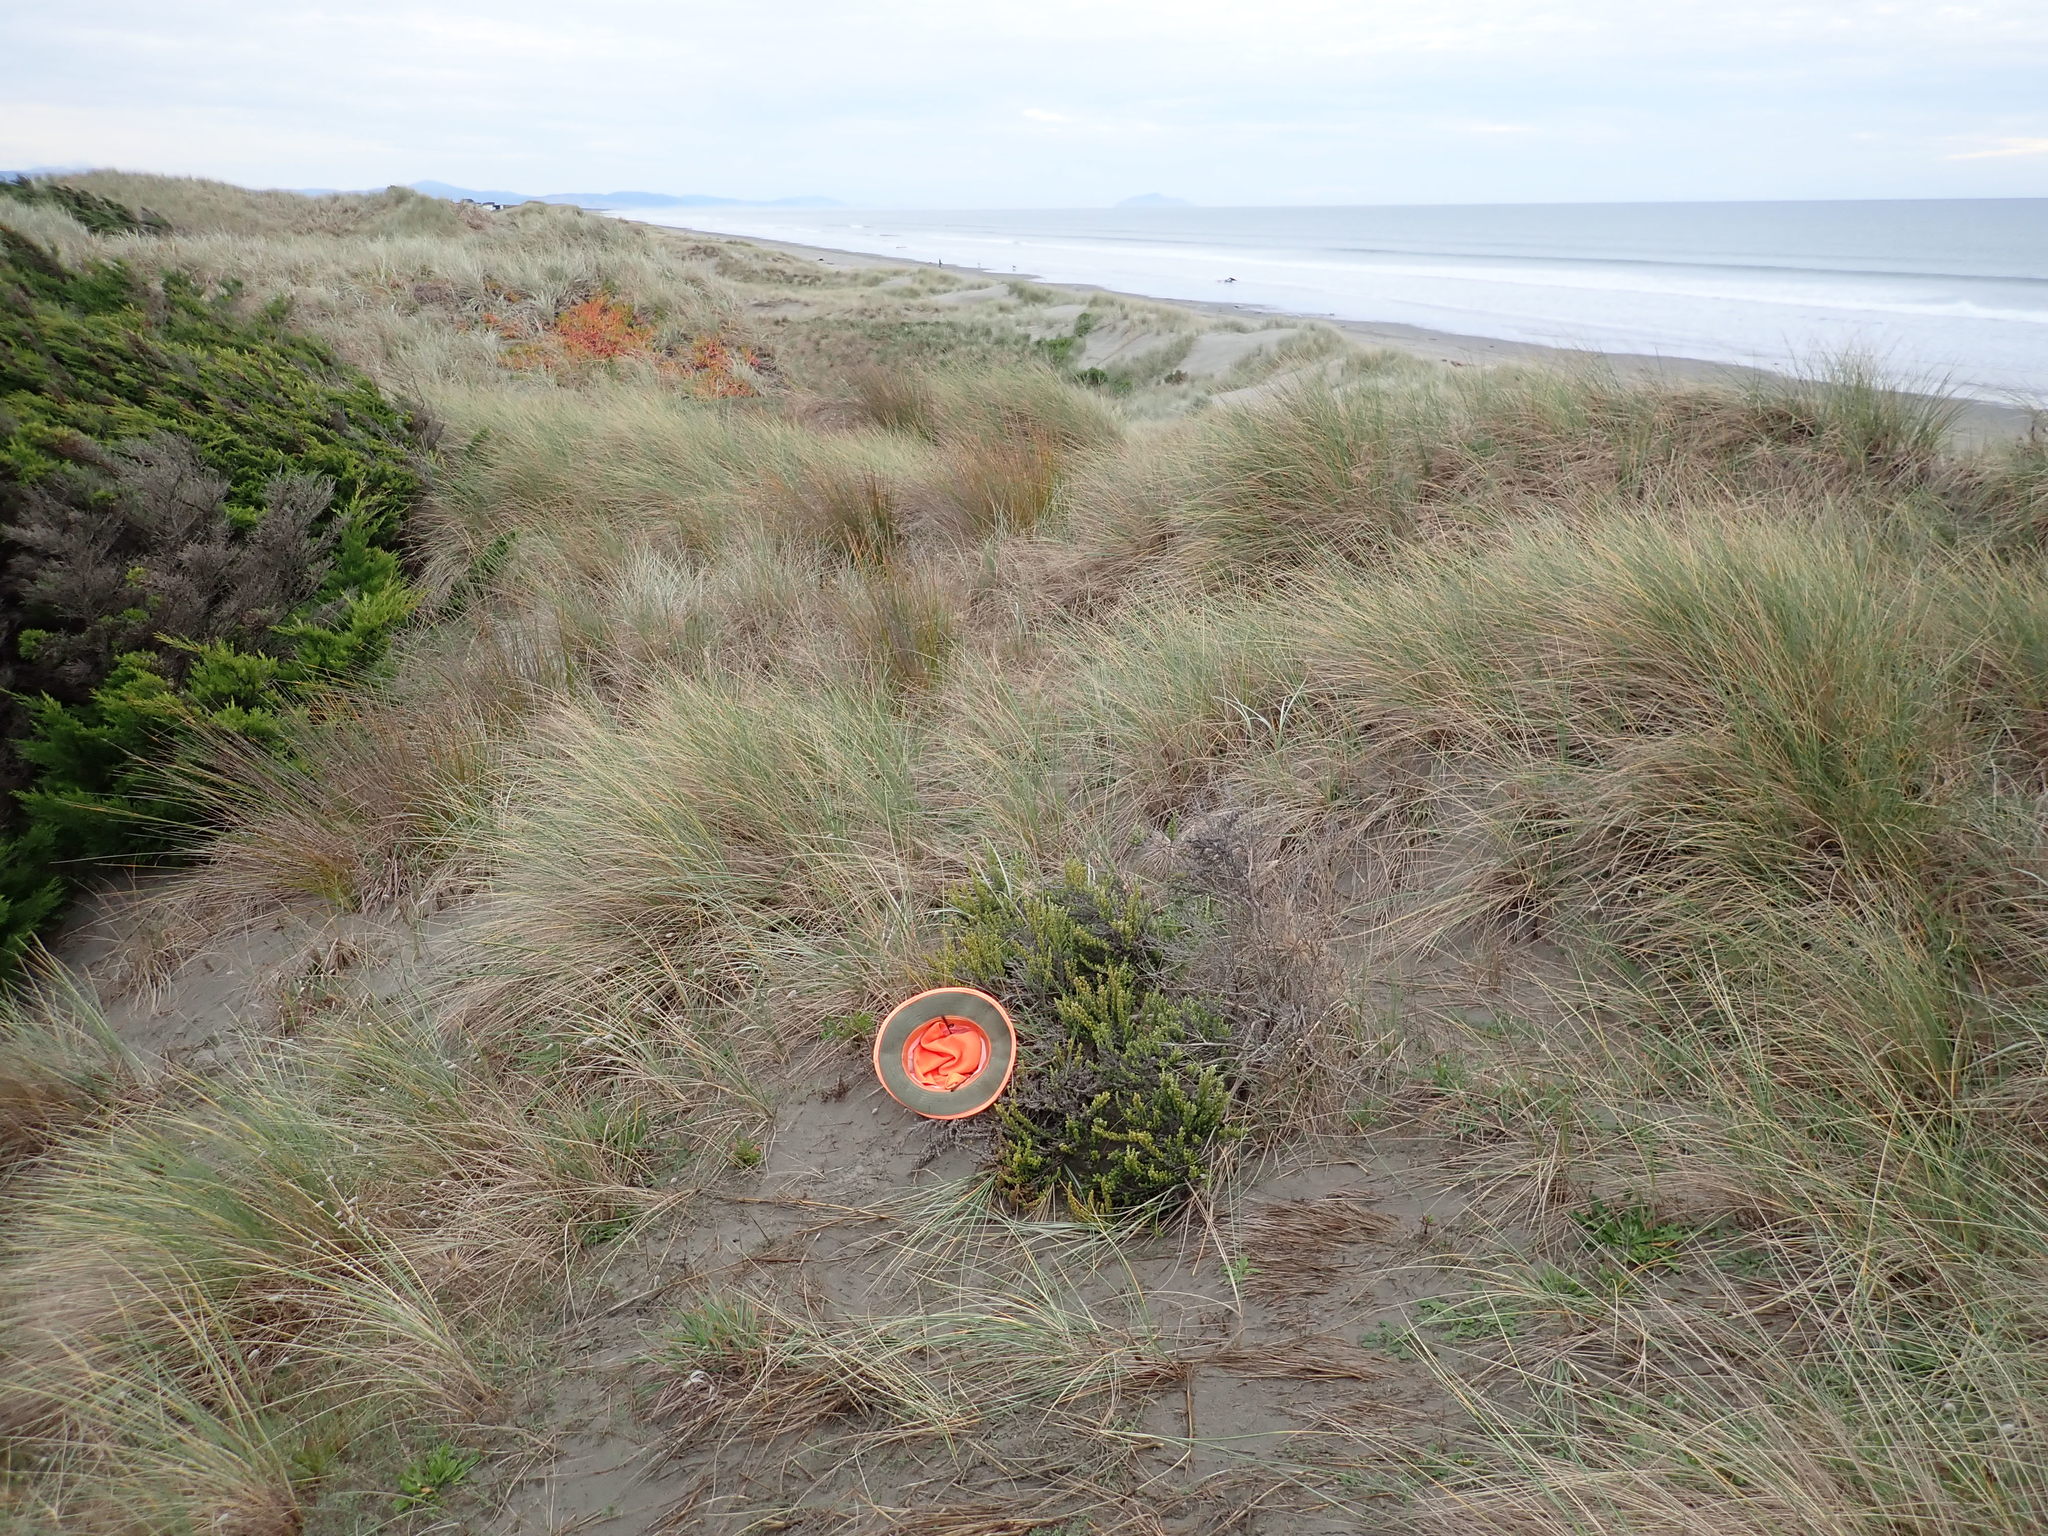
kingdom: Plantae
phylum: Tracheophyta
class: Magnoliopsida
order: Asterales
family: Asteraceae
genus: Ozothamnus
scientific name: Ozothamnus leptophyllus
